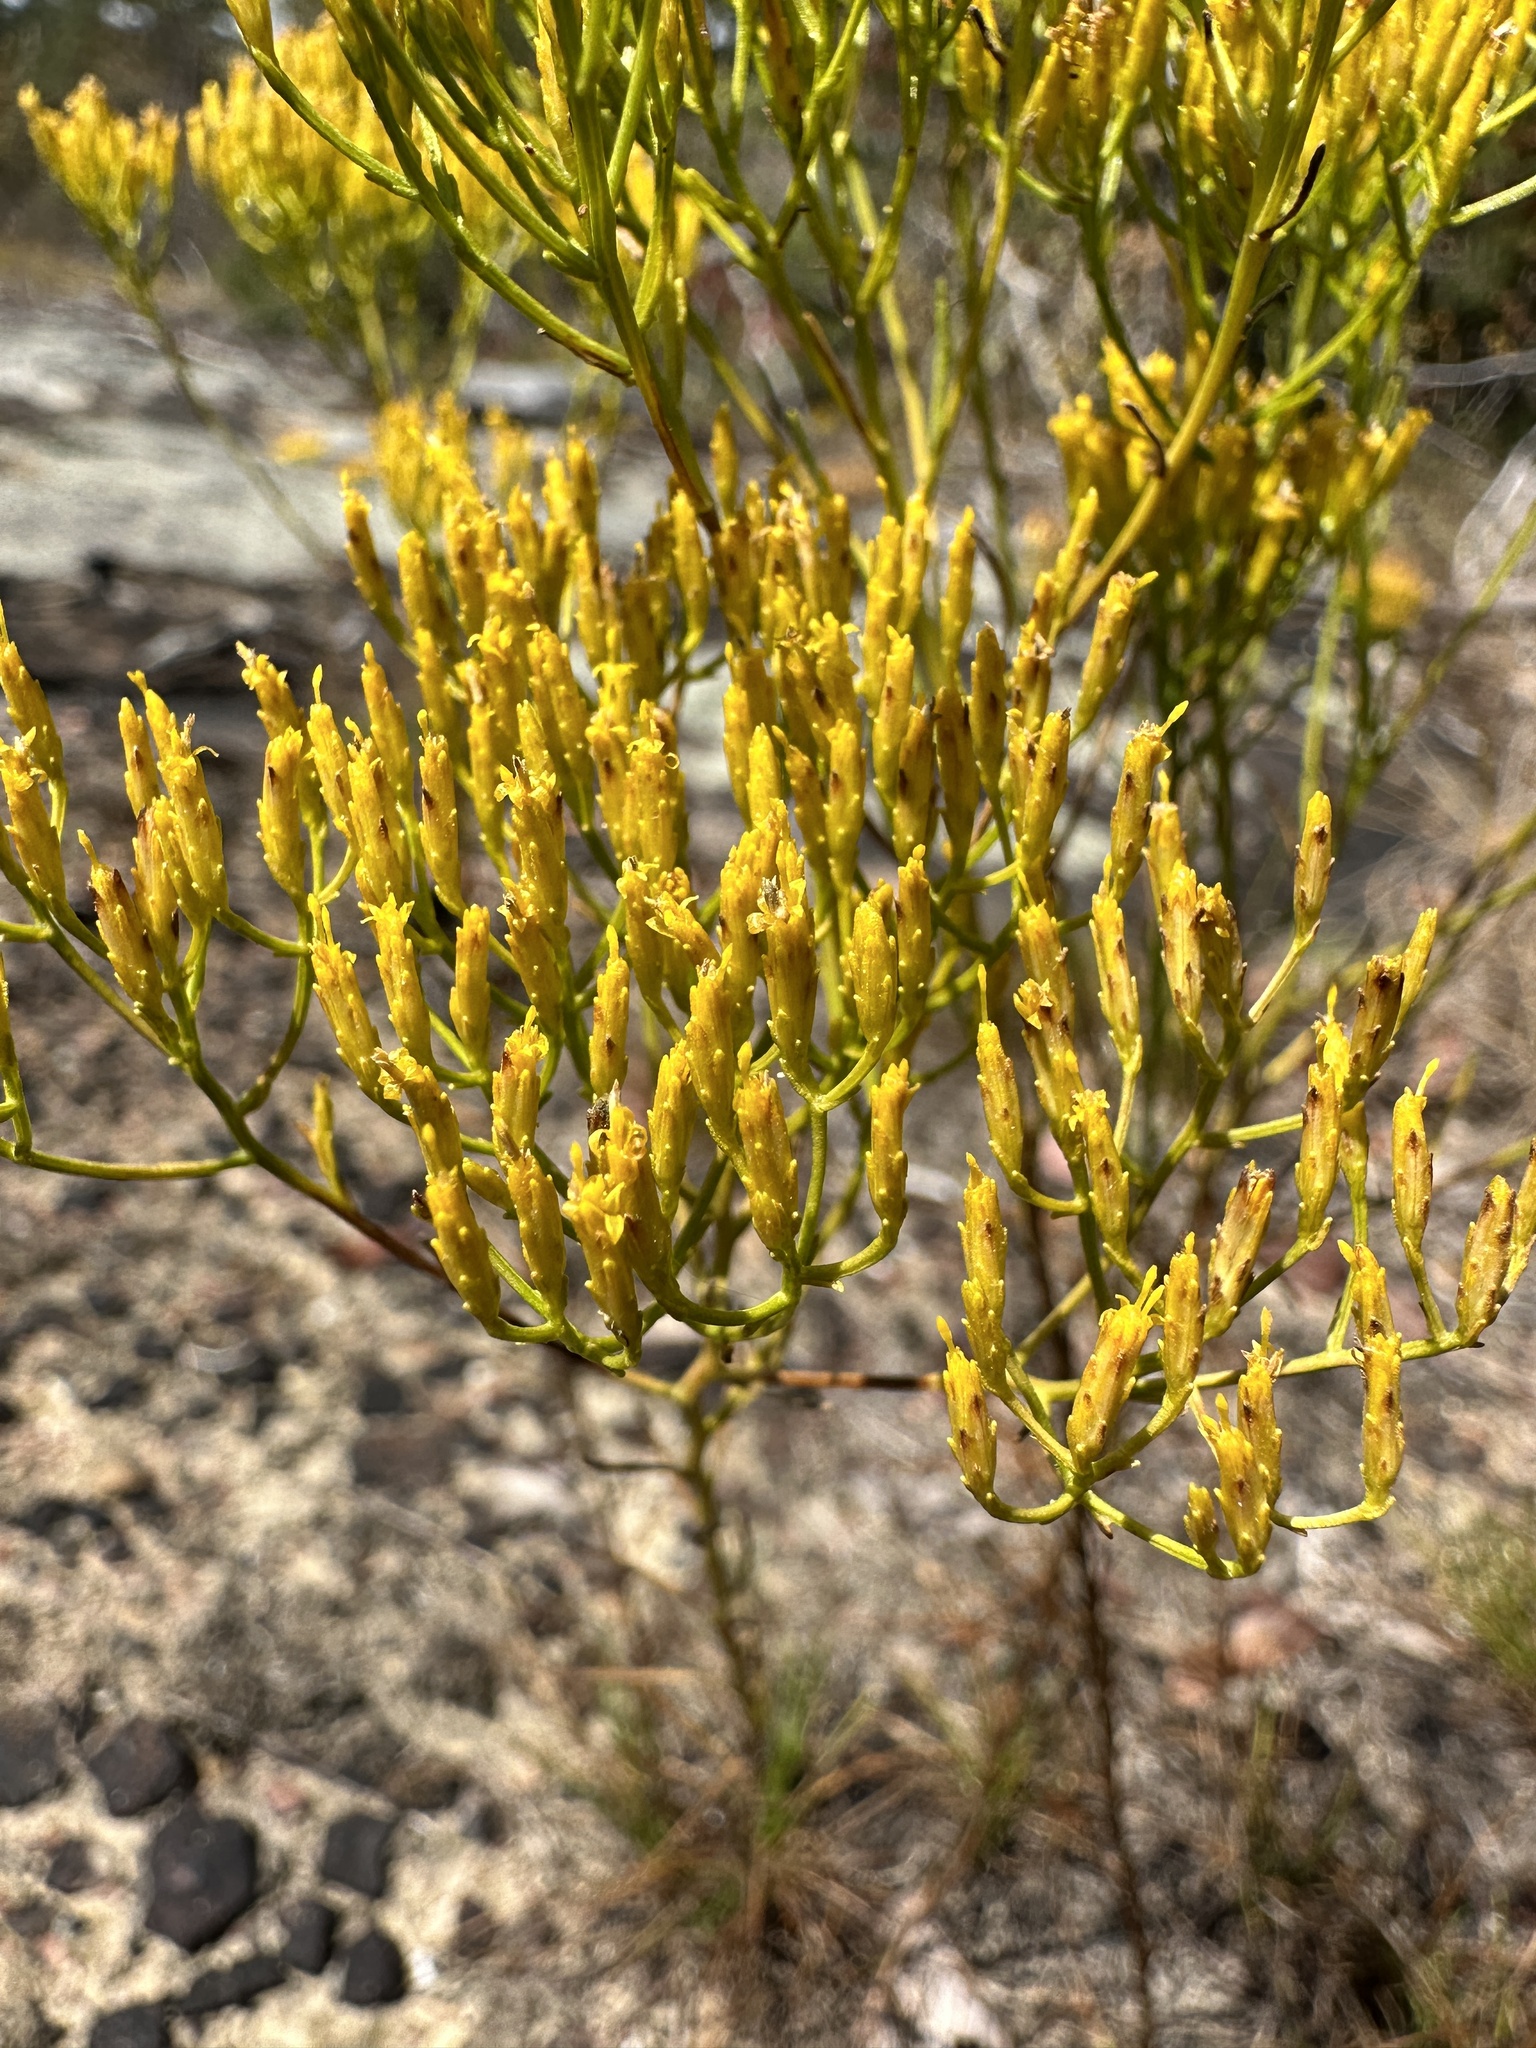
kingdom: Plantae
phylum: Tracheophyta
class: Magnoliopsida
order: Asterales
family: Asteraceae
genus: Bigelowia
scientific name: Bigelowia nuttallii
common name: Nuttall's rayless-goldenrod
